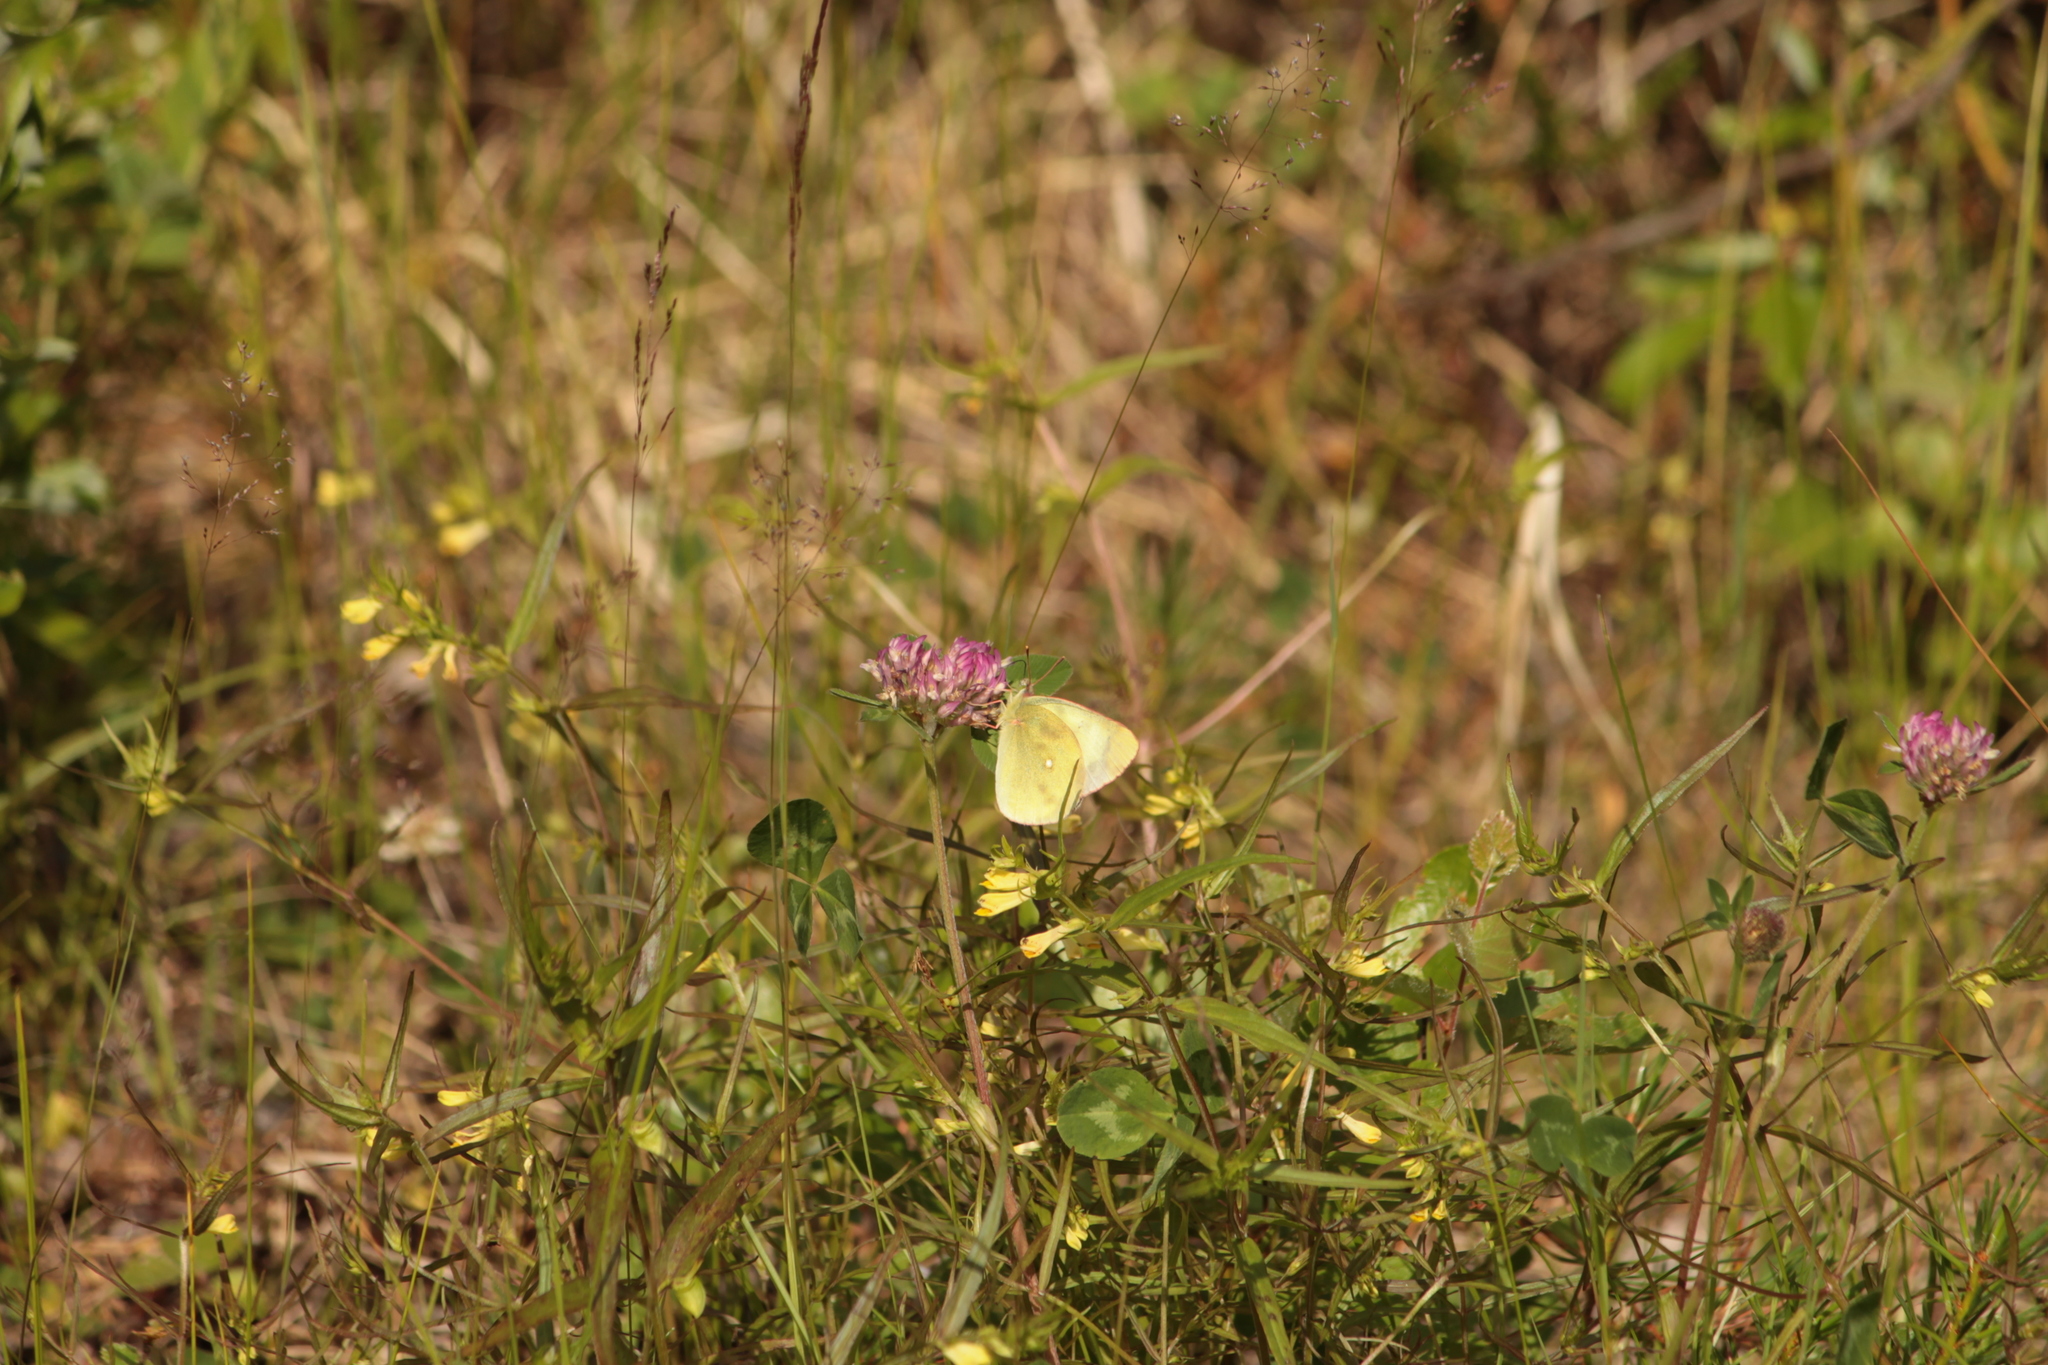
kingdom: Animalia
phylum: Arthropoda
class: Insecta
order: Lepidoptera
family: Pieridae
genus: Colias
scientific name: Colias palaeno
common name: Moorland clouded yellow
